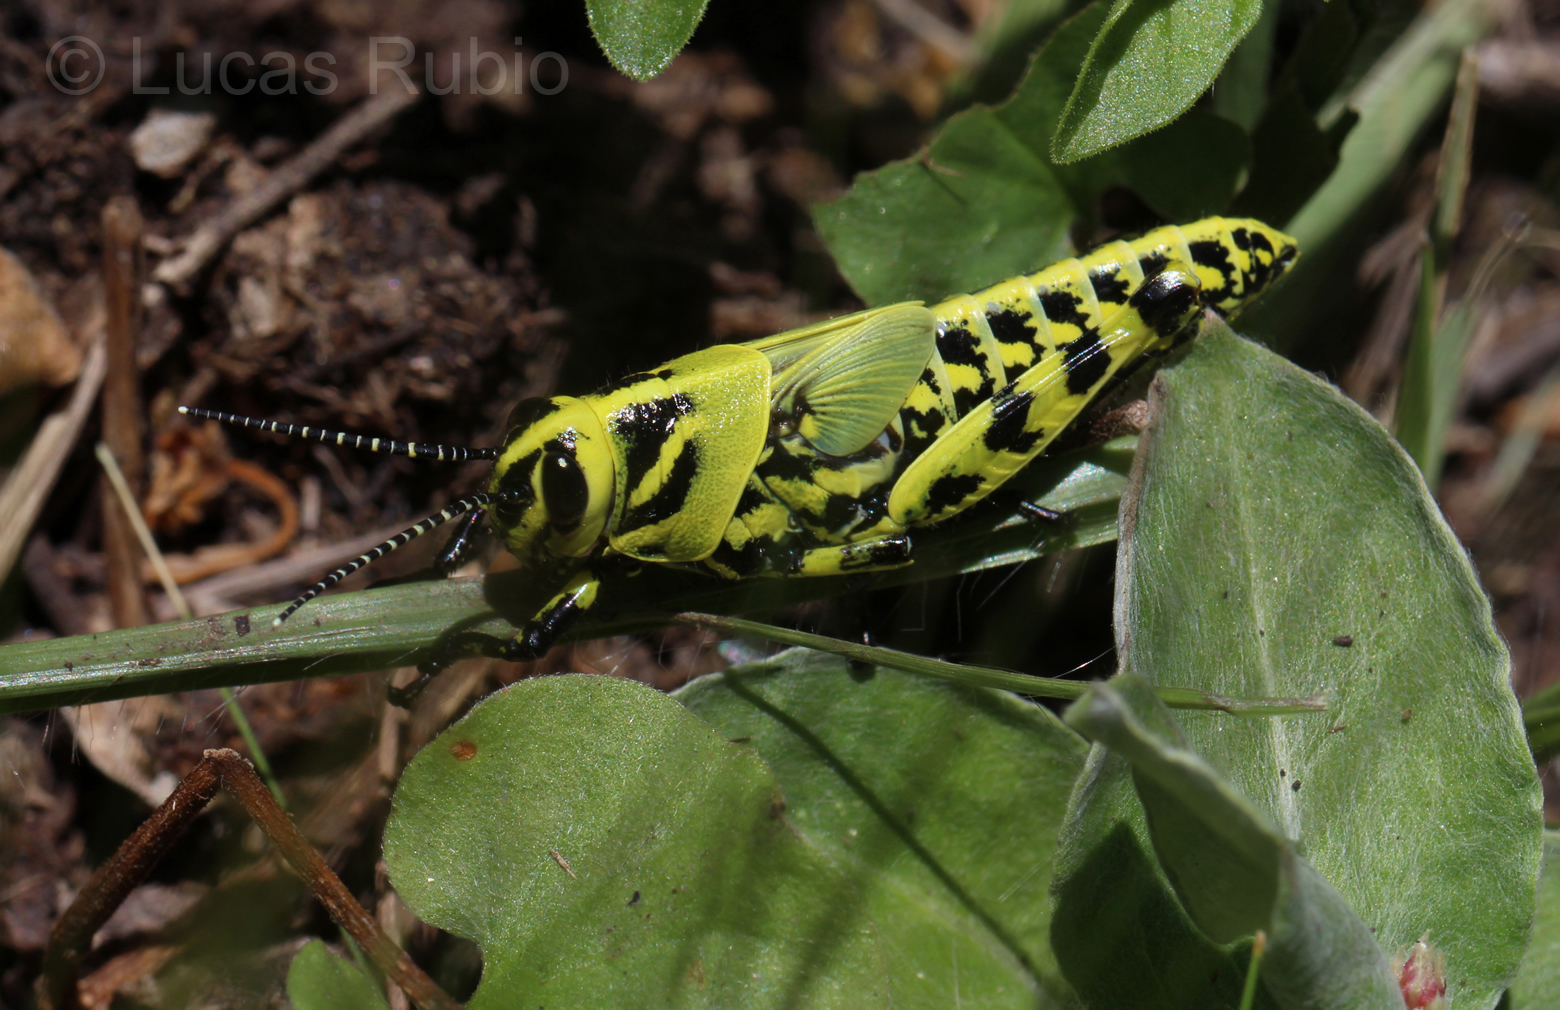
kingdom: Animalia
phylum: Arthropoda
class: Insecta
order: Orthoptera
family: Romaleidae
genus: Diponthus
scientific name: Diponthus argentinus
